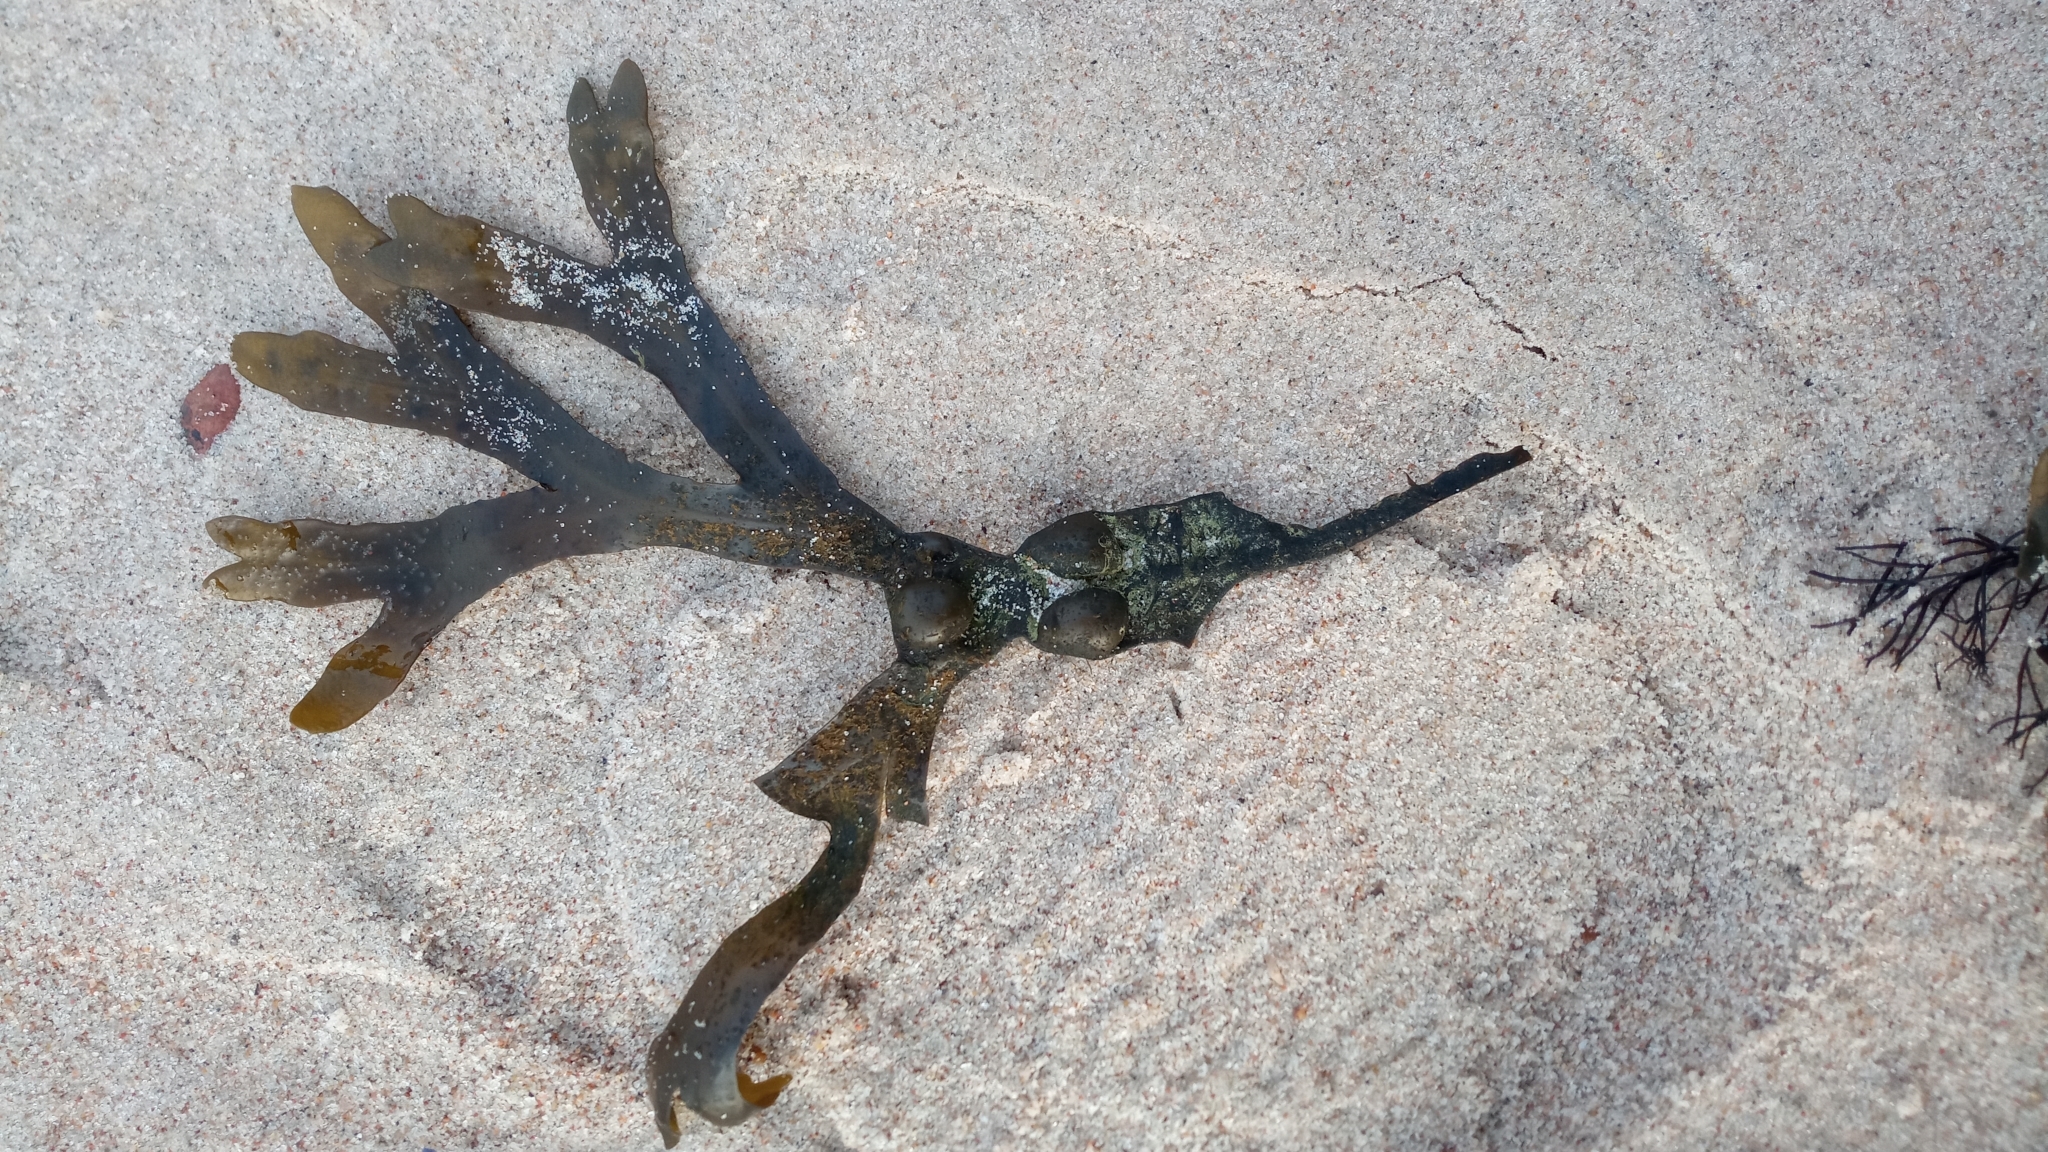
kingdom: Chromista
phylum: Ochrophyta
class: Phaeophyceae
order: Fucales
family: Fucaceae
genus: Fucus
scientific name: Fucus vesiculosus
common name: Bladder wrack
